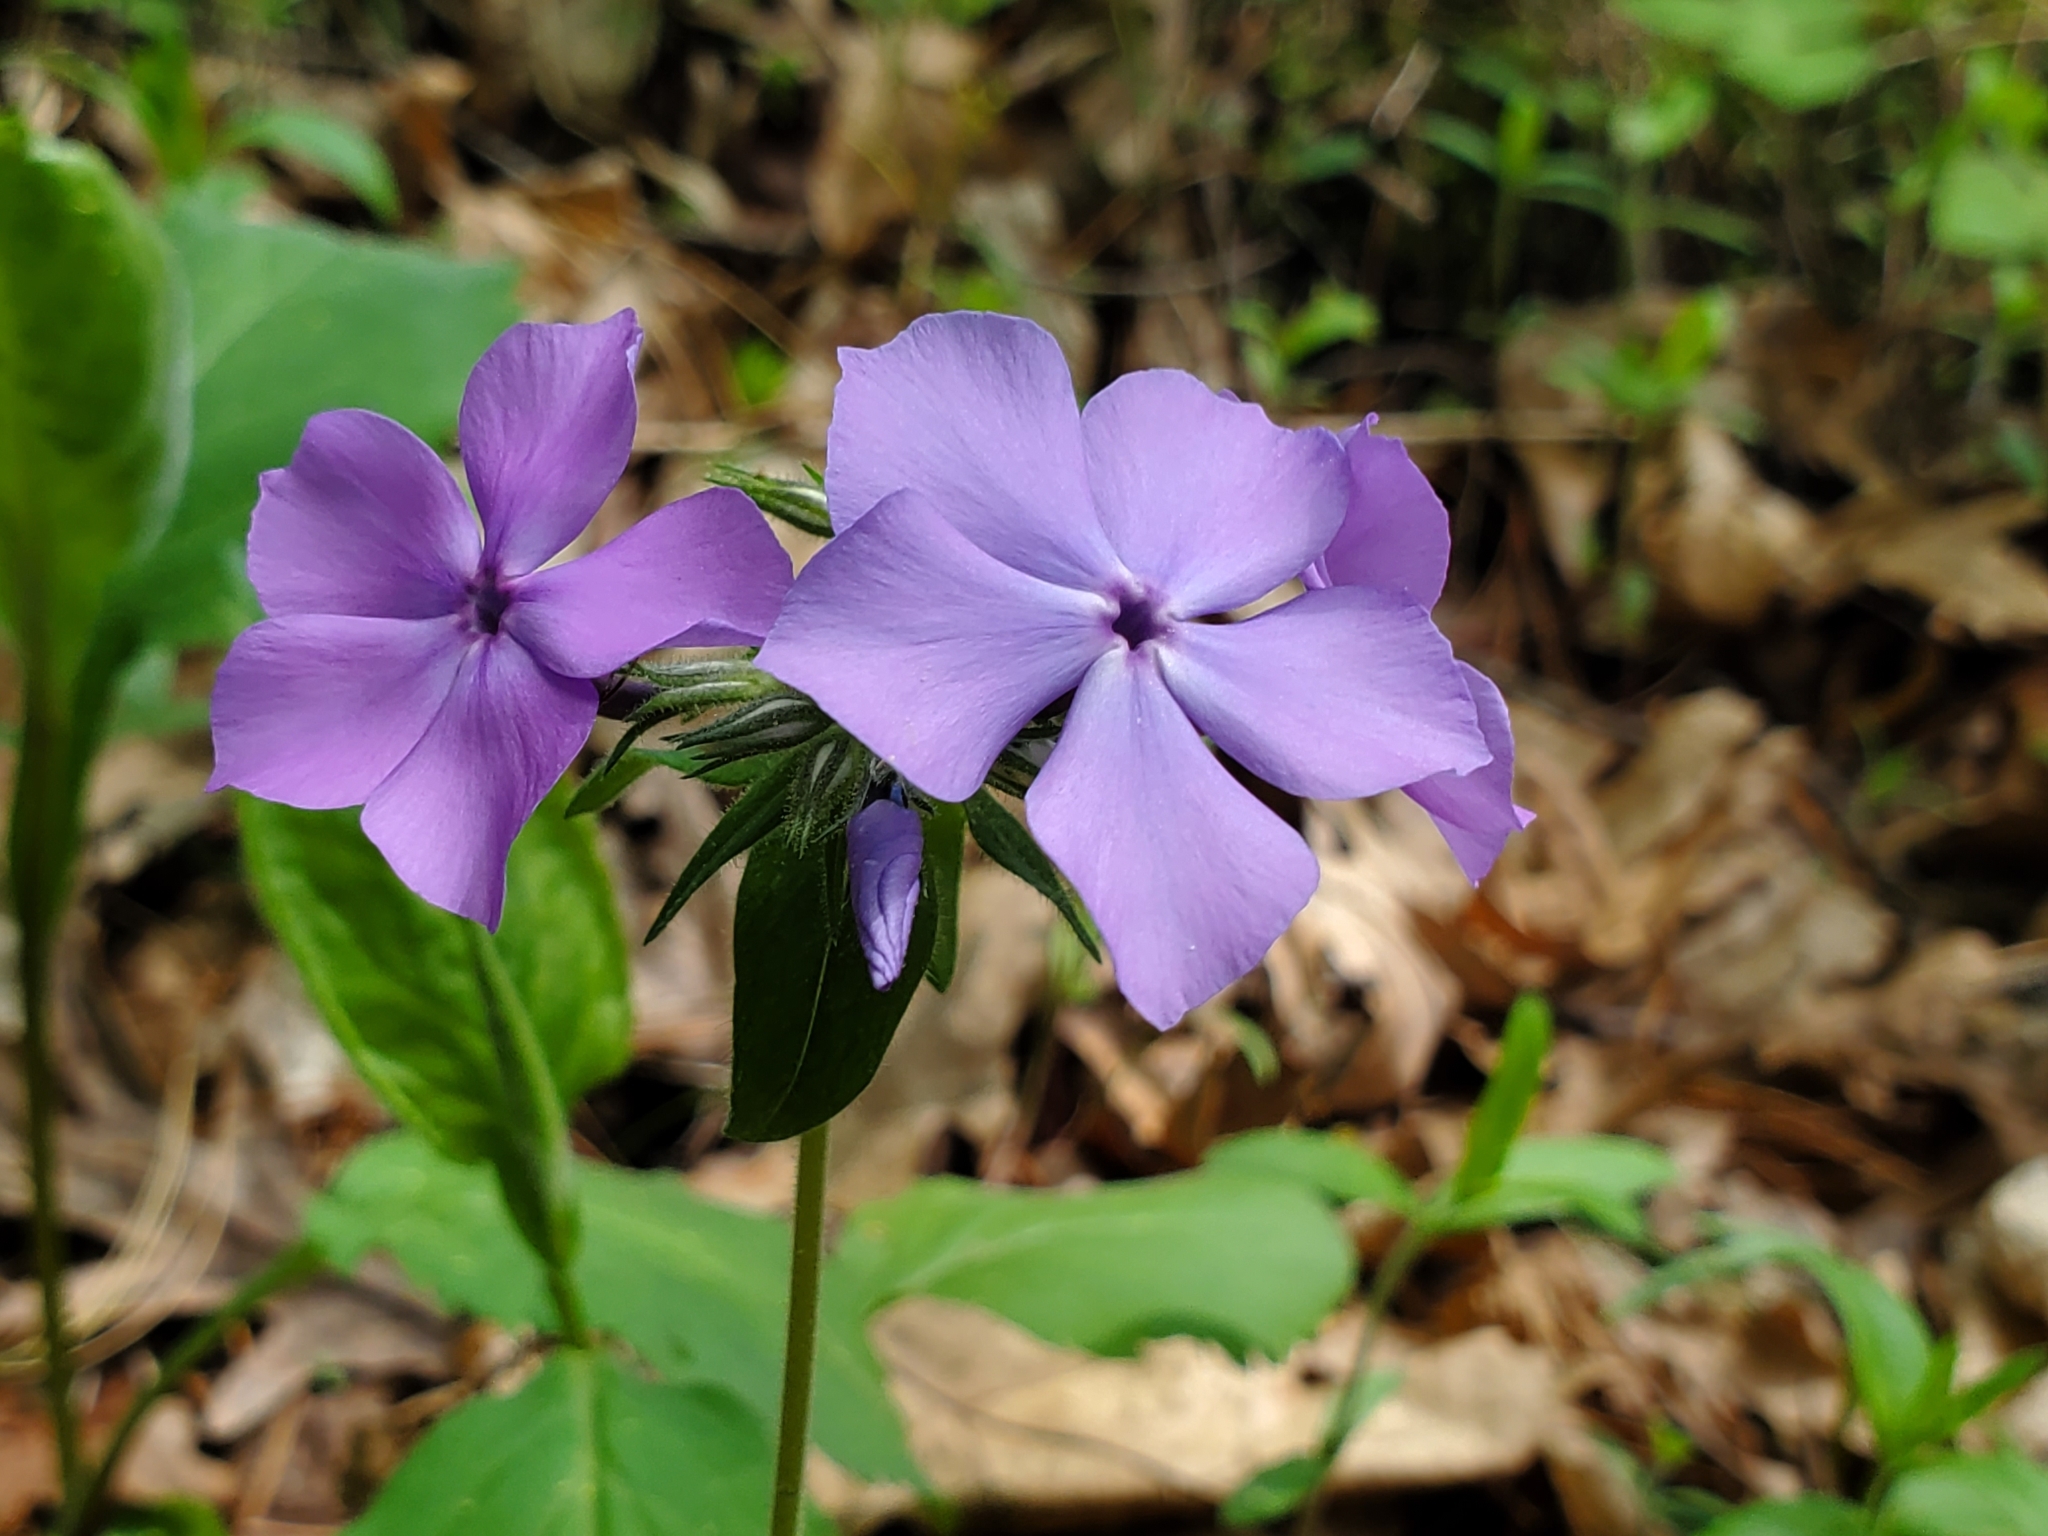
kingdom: Plantae
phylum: Tracheophyta
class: Magnoliopsida
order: Ericales
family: Polemoniaceae
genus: Phlox
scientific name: Phlox divaricata
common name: Blue phlox
